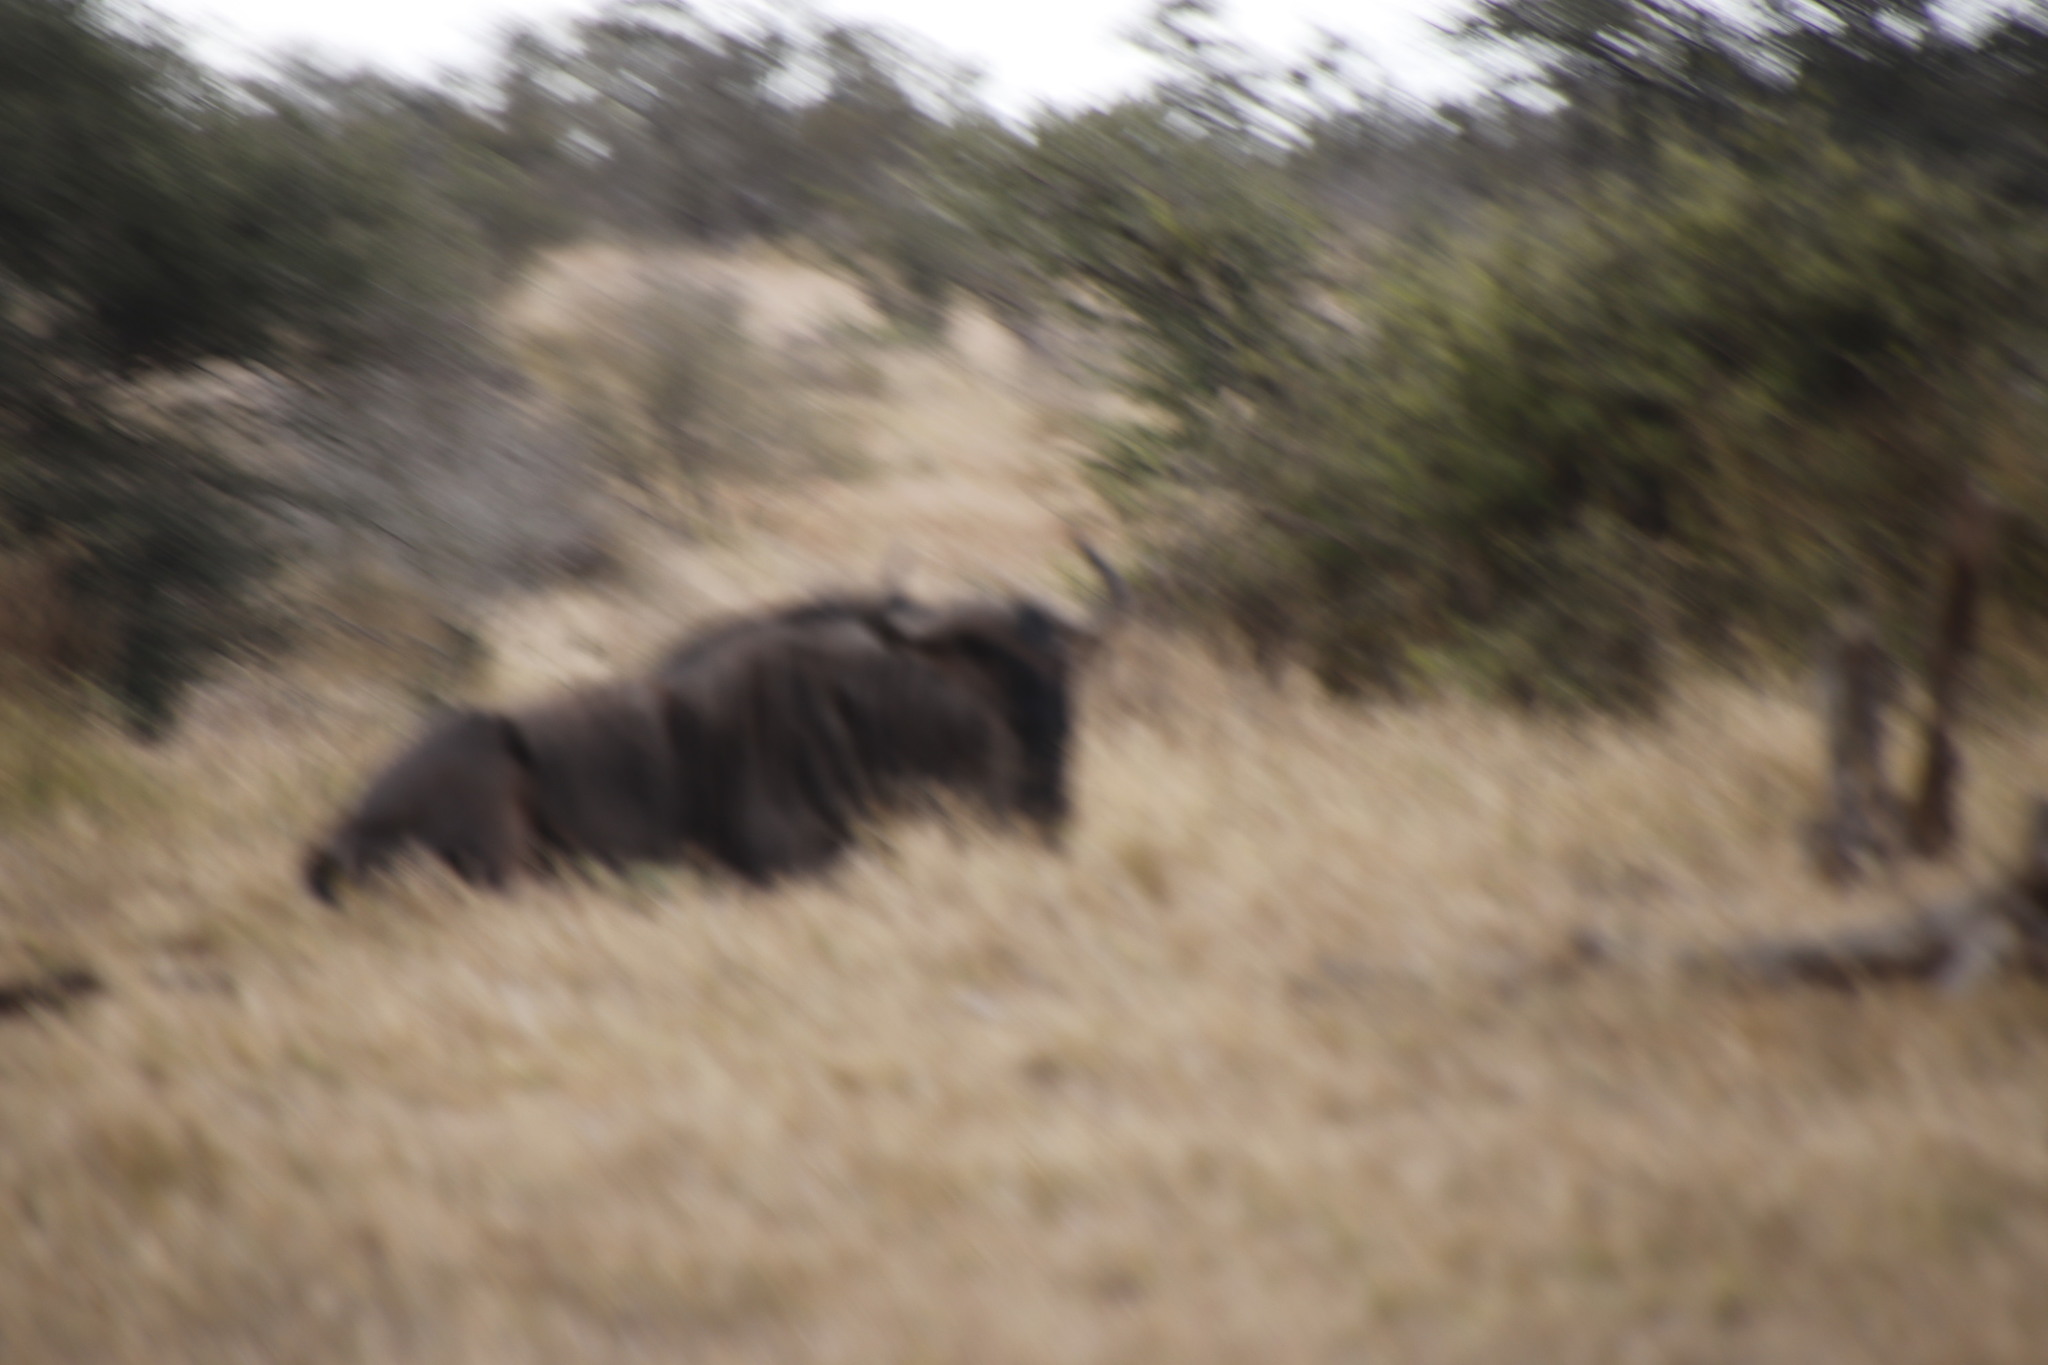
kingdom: Animalia
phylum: Chordata
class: Mammalia
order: Artiodactyla
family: Bovidae
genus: Connochaetes
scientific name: Connochaetes taurinus
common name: Blue wildebeest
